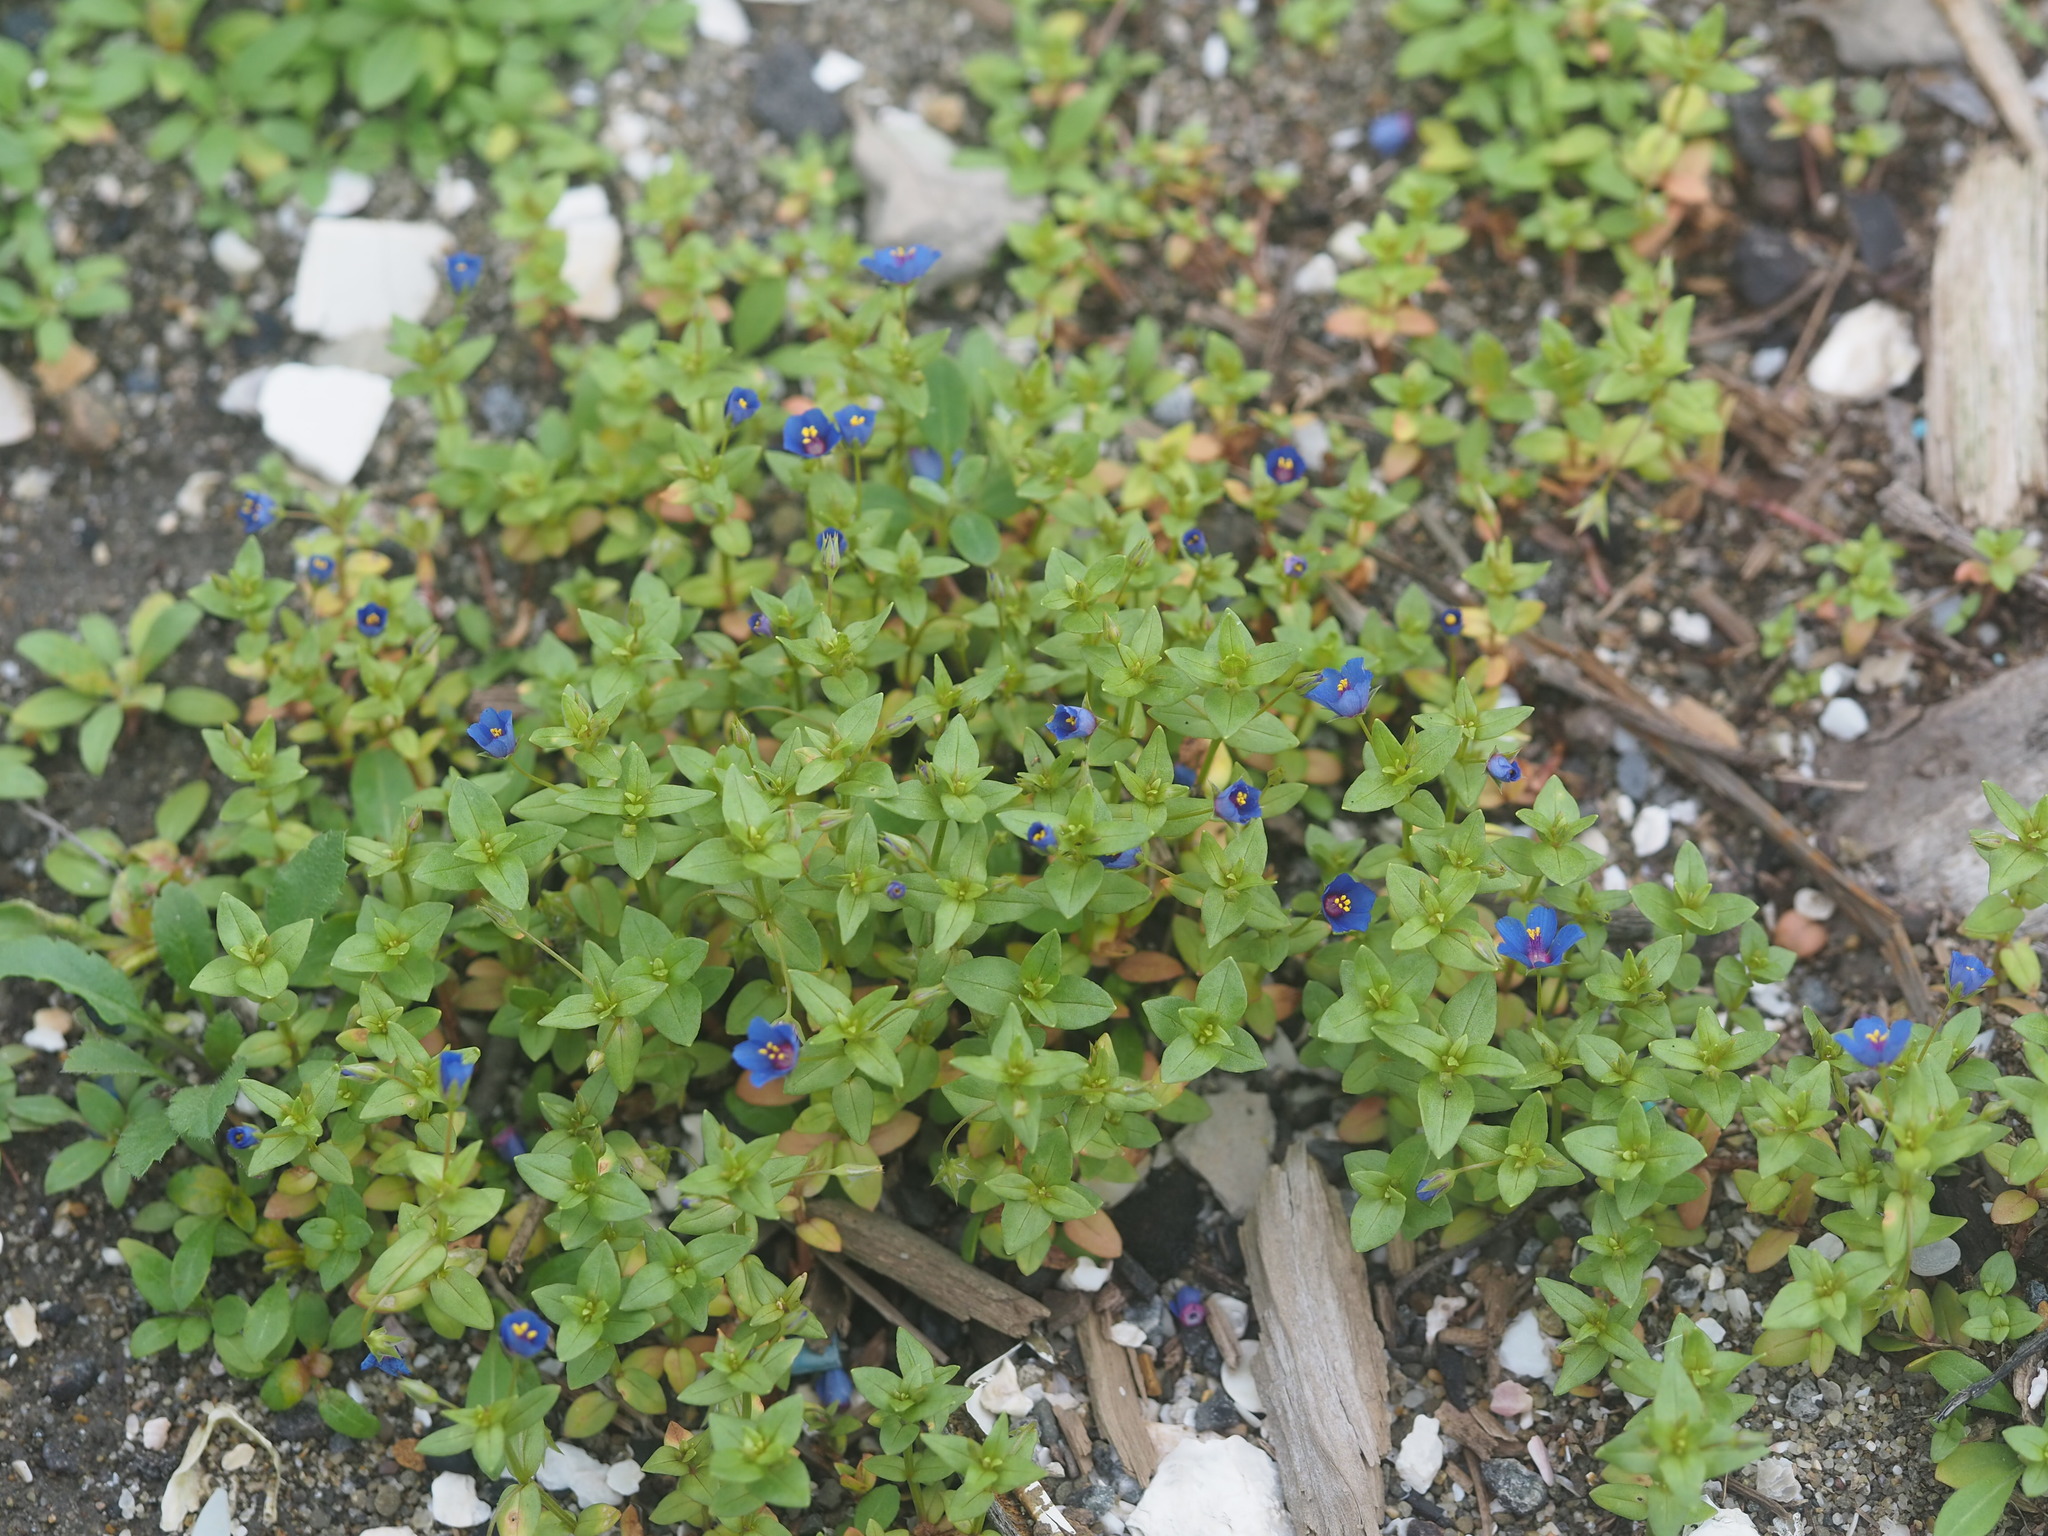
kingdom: Plantae
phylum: Tracheophyta
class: Magnoliopsida
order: Ericales
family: Primulaceae
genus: Lysimachia
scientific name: Lysimachia loeflingii
